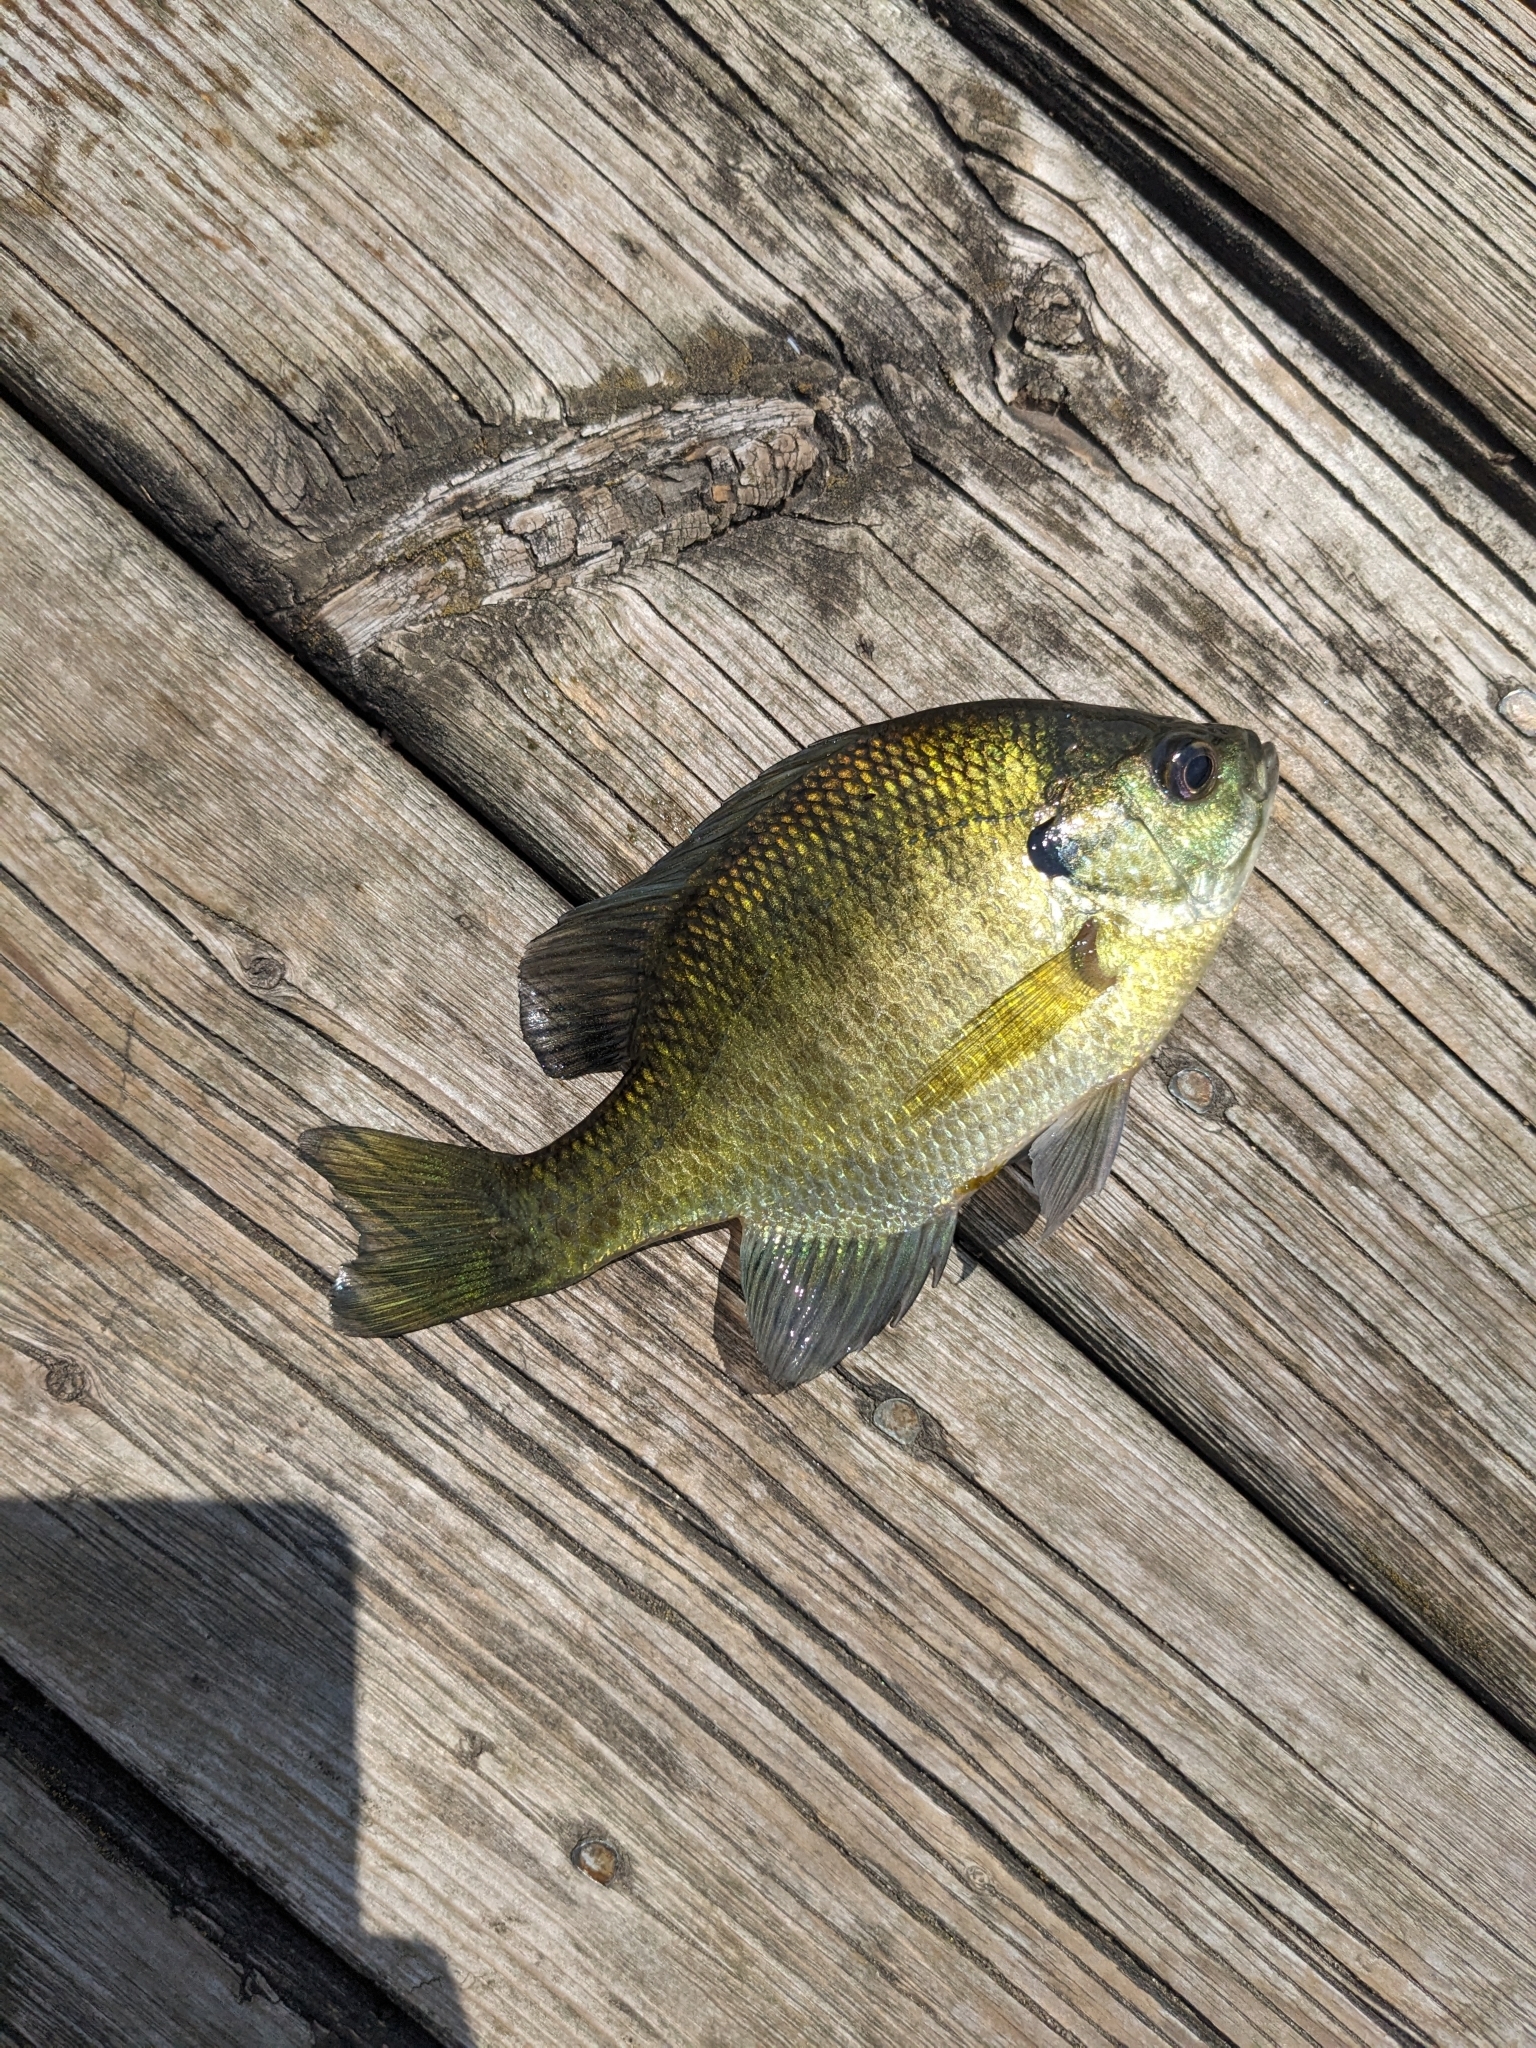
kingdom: Animalia
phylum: Chordata
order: Perciformes
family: Centrarchidae
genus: Lepomis
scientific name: Lepomis macrochirus
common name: Bluegill
